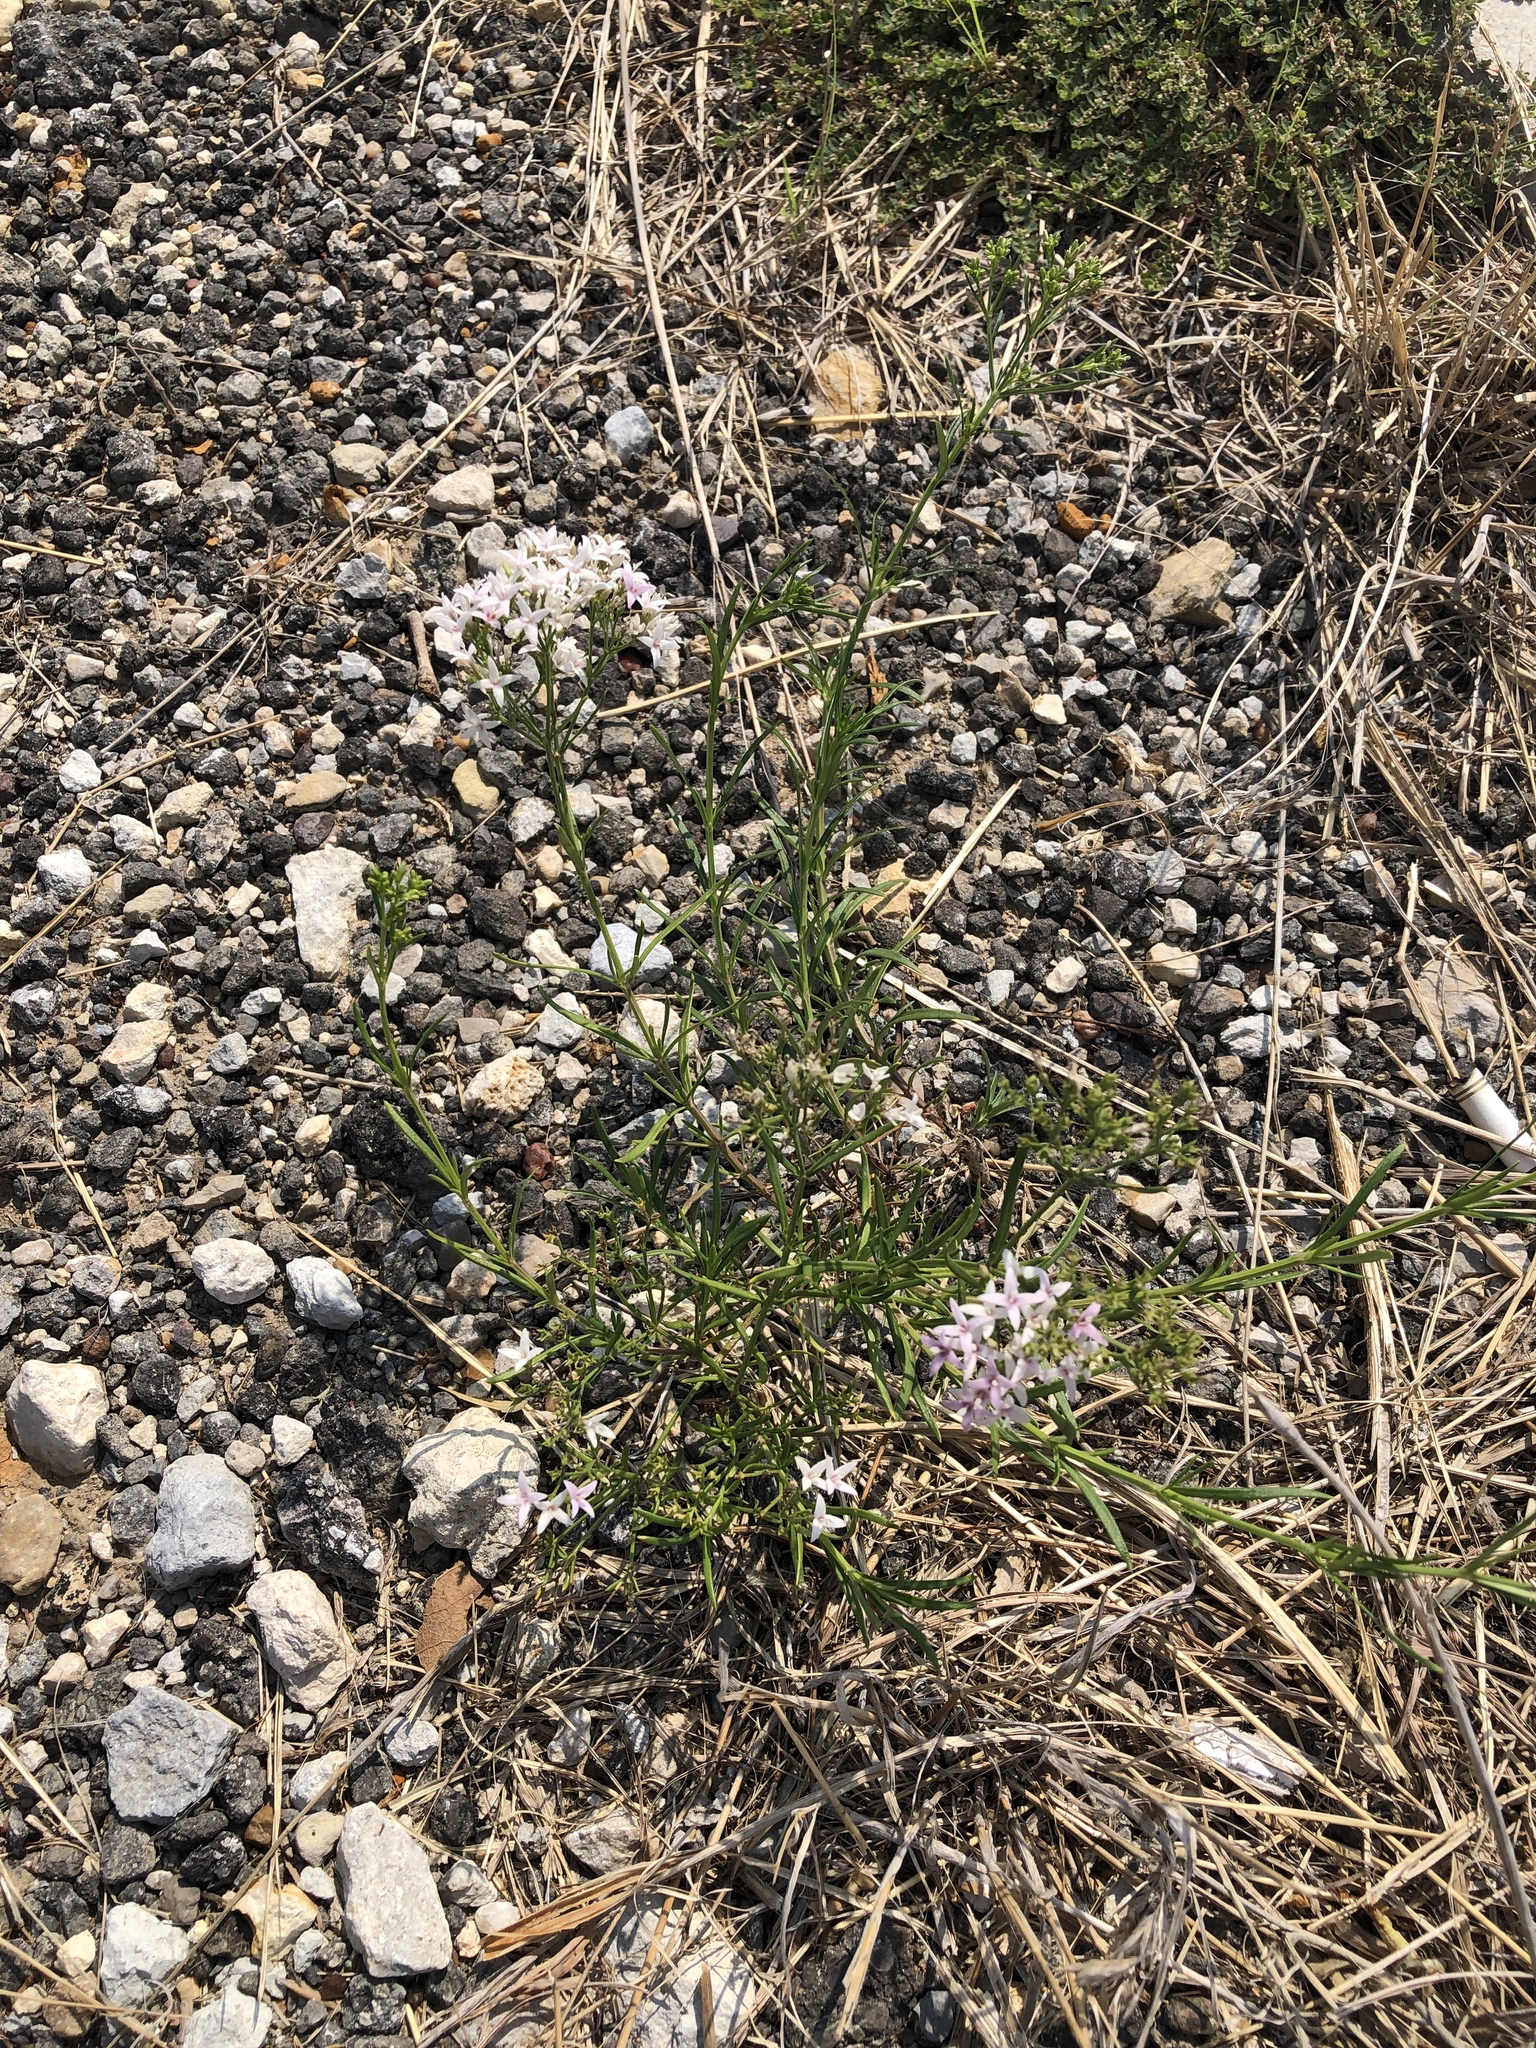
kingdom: Plantae
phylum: Tracheophyta
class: Magnoliopsida
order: Gentianales
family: Rubiaceae
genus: Stenaria
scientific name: Stenaria nigricans
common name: Diamondflowers
